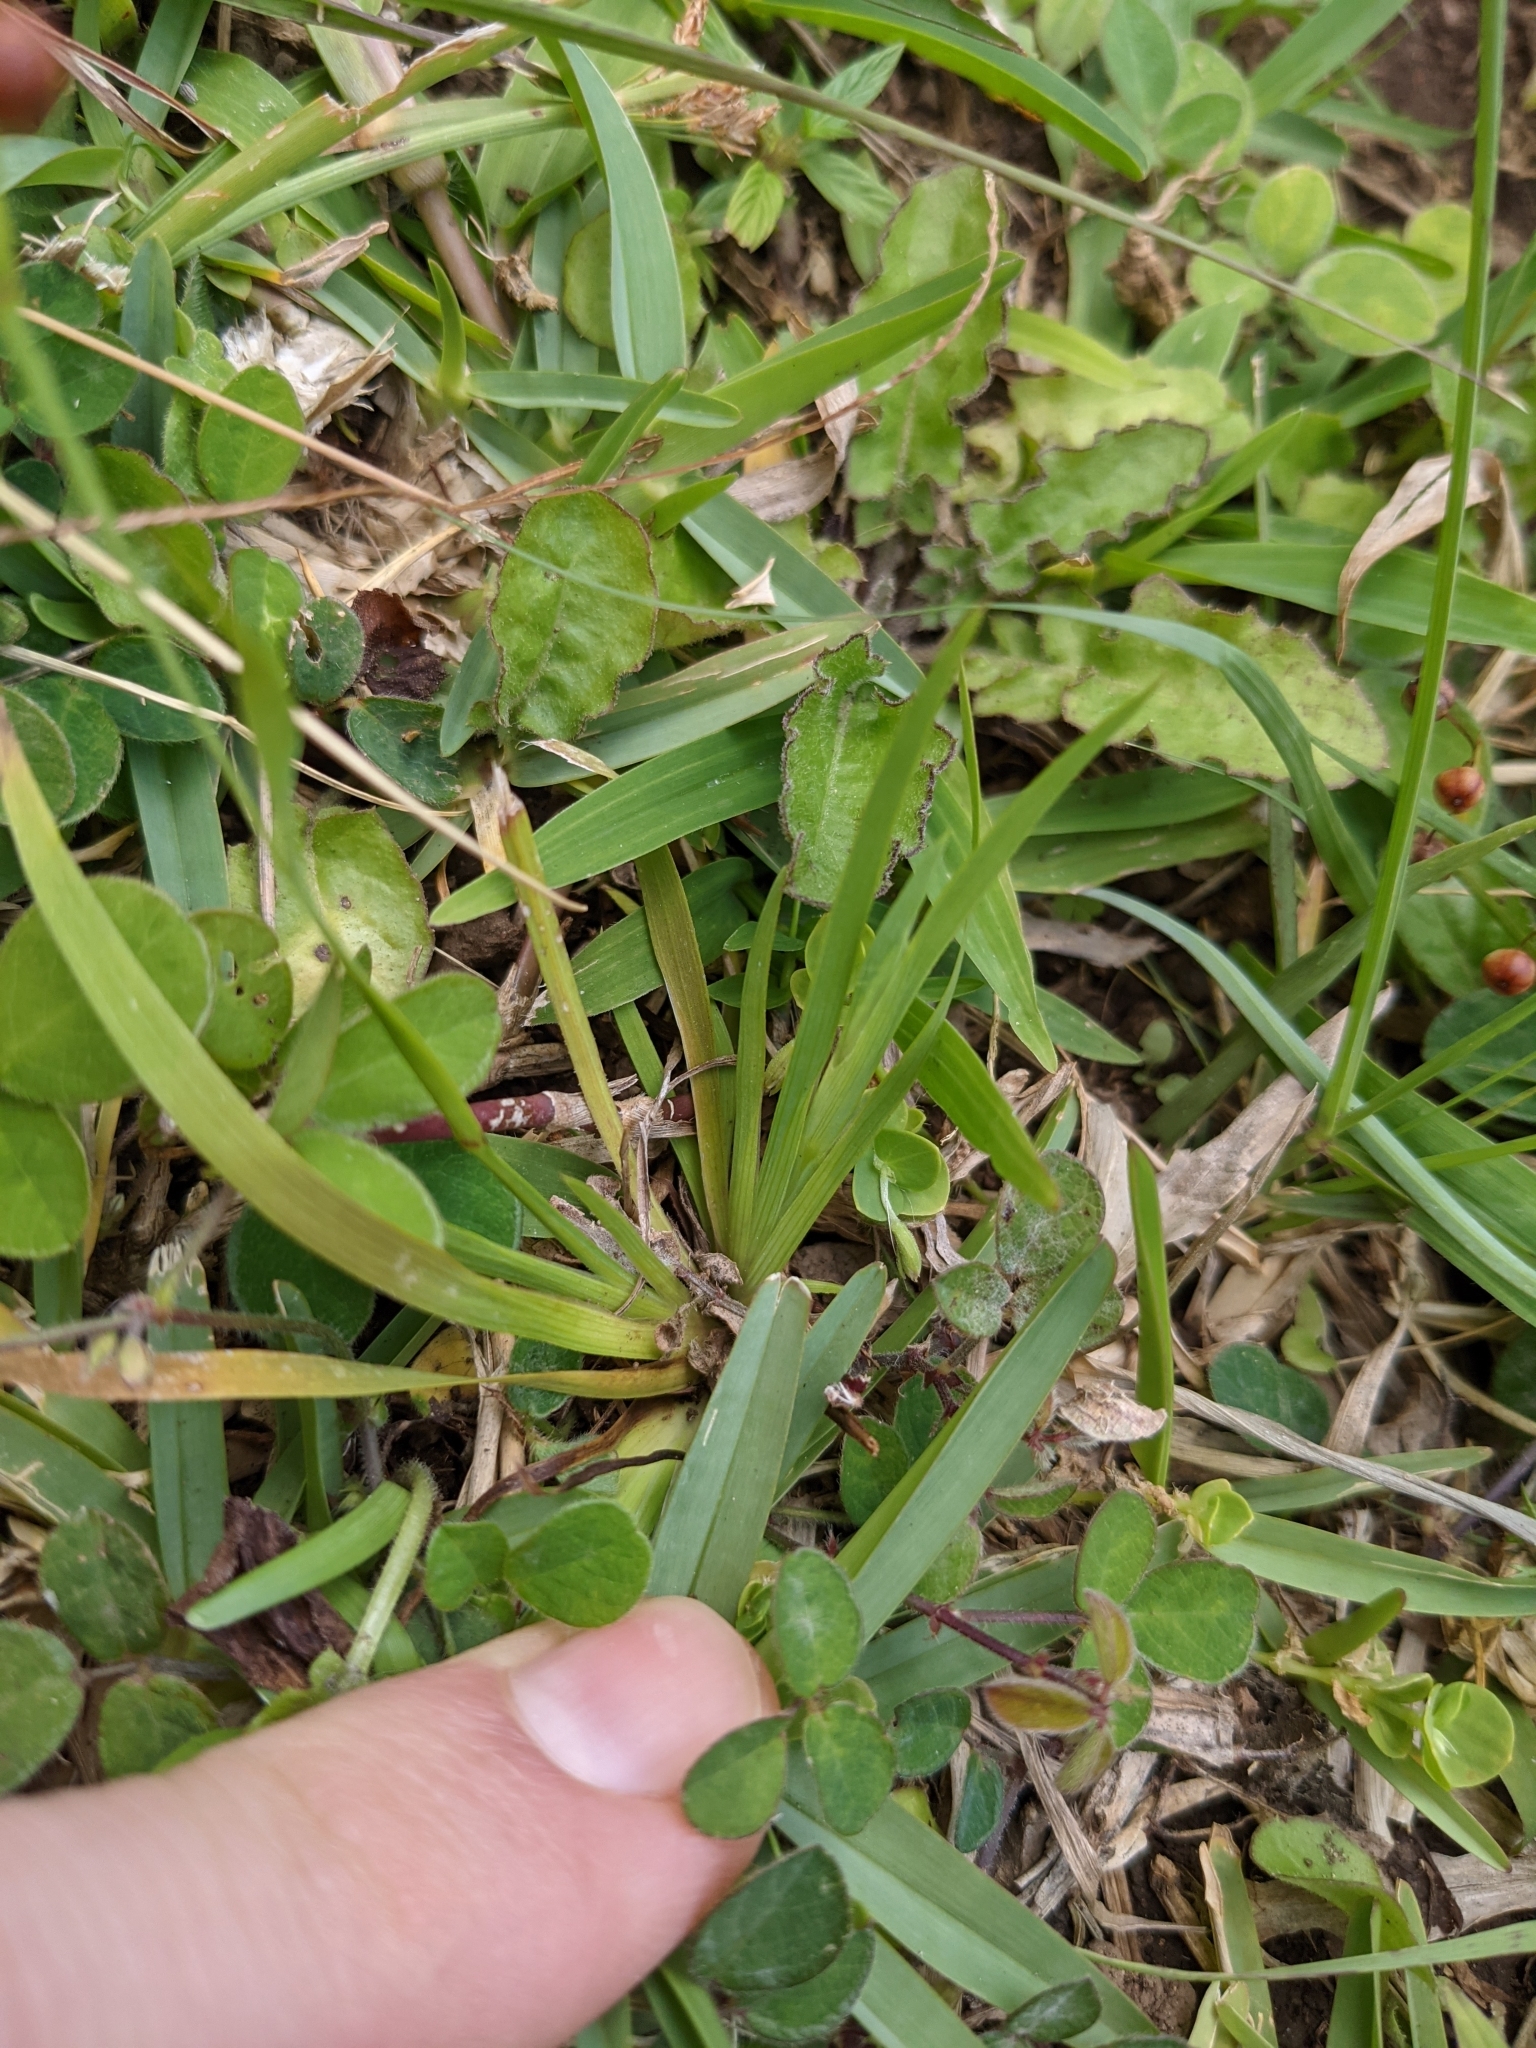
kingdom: Plantae
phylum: Tracheophyta
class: Liliopsida
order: Asparagales
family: Iridaceae
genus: Sisyrinchium
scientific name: Sisyrinchium micranthum
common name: Bermuda pigroot
